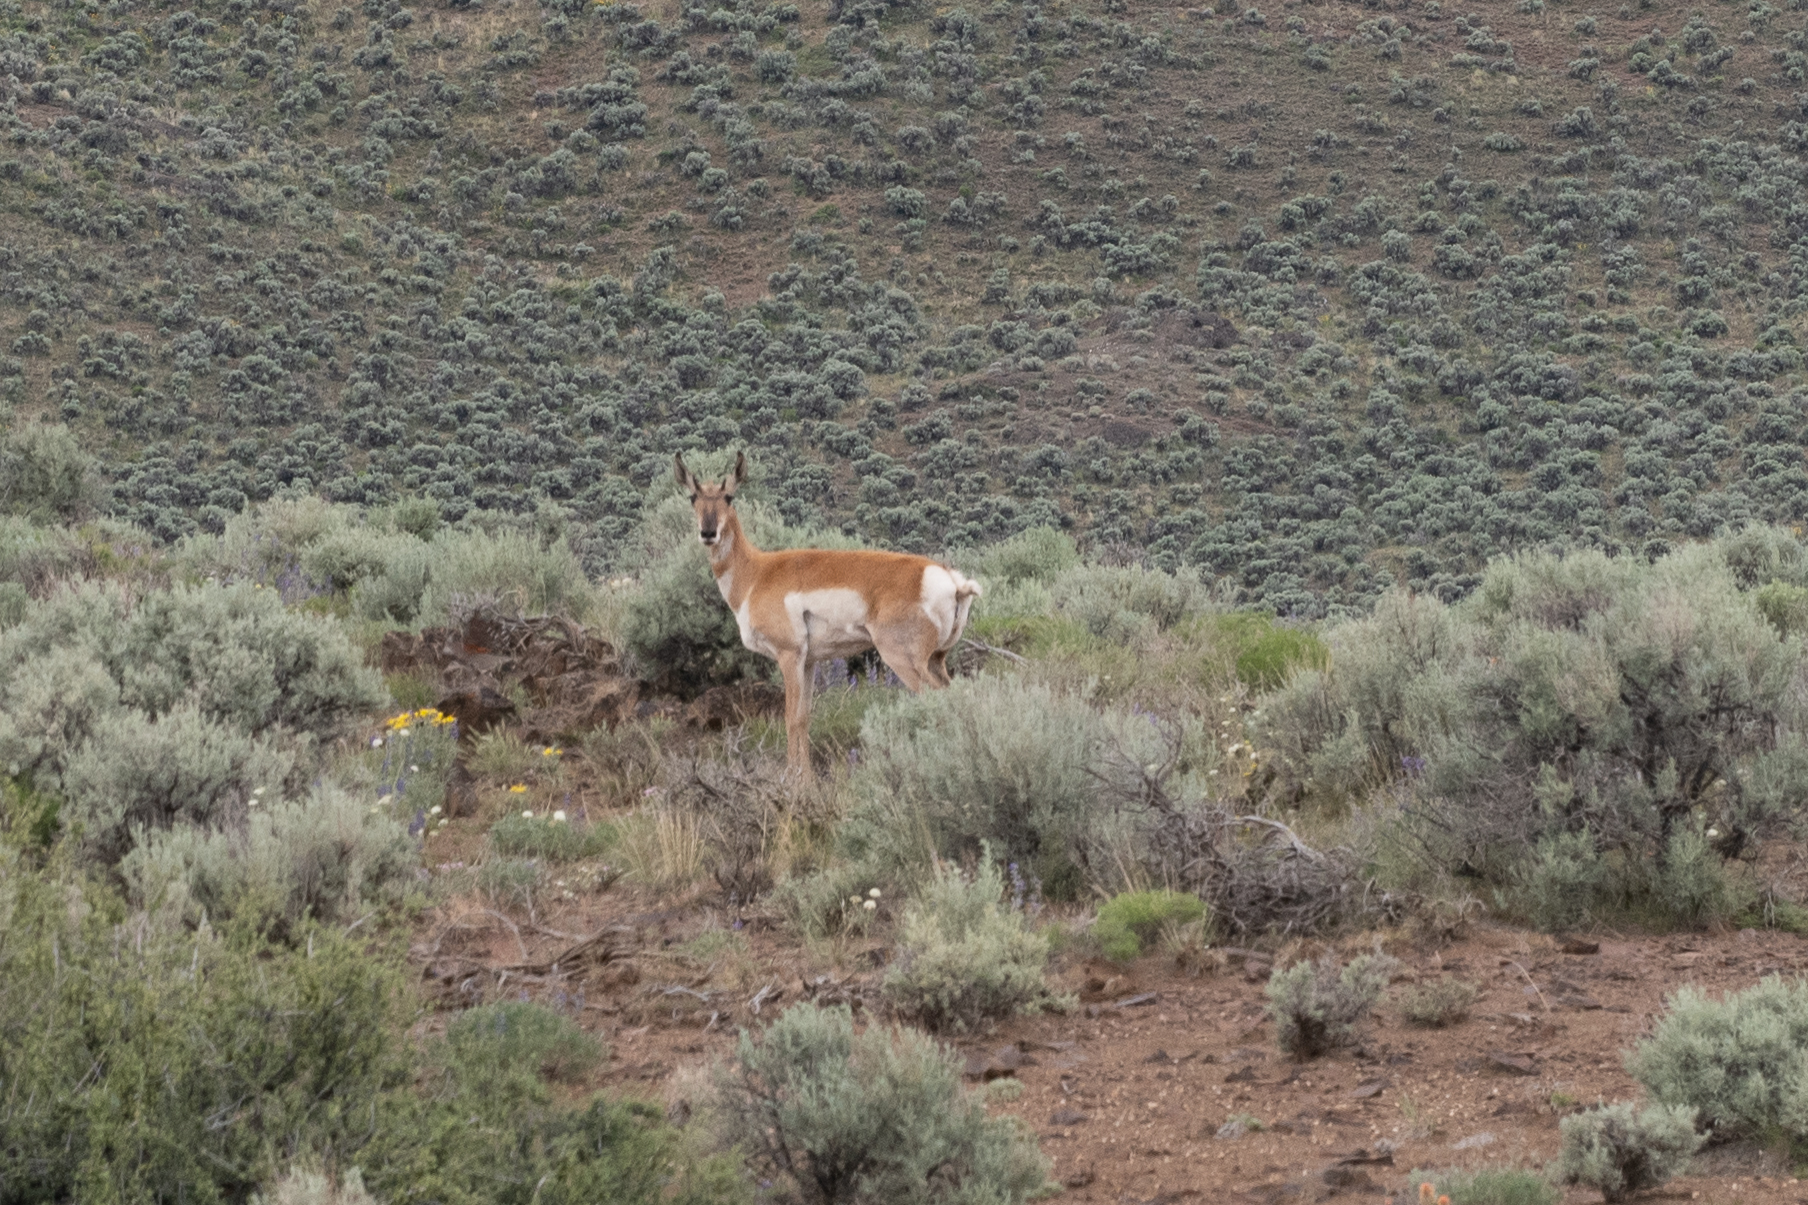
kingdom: Animalia
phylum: Chordata
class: Mammalia
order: Artiodactyla
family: Antilocapridae
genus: Antilocapra
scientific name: Antilocapra americana
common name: Pronghorn
